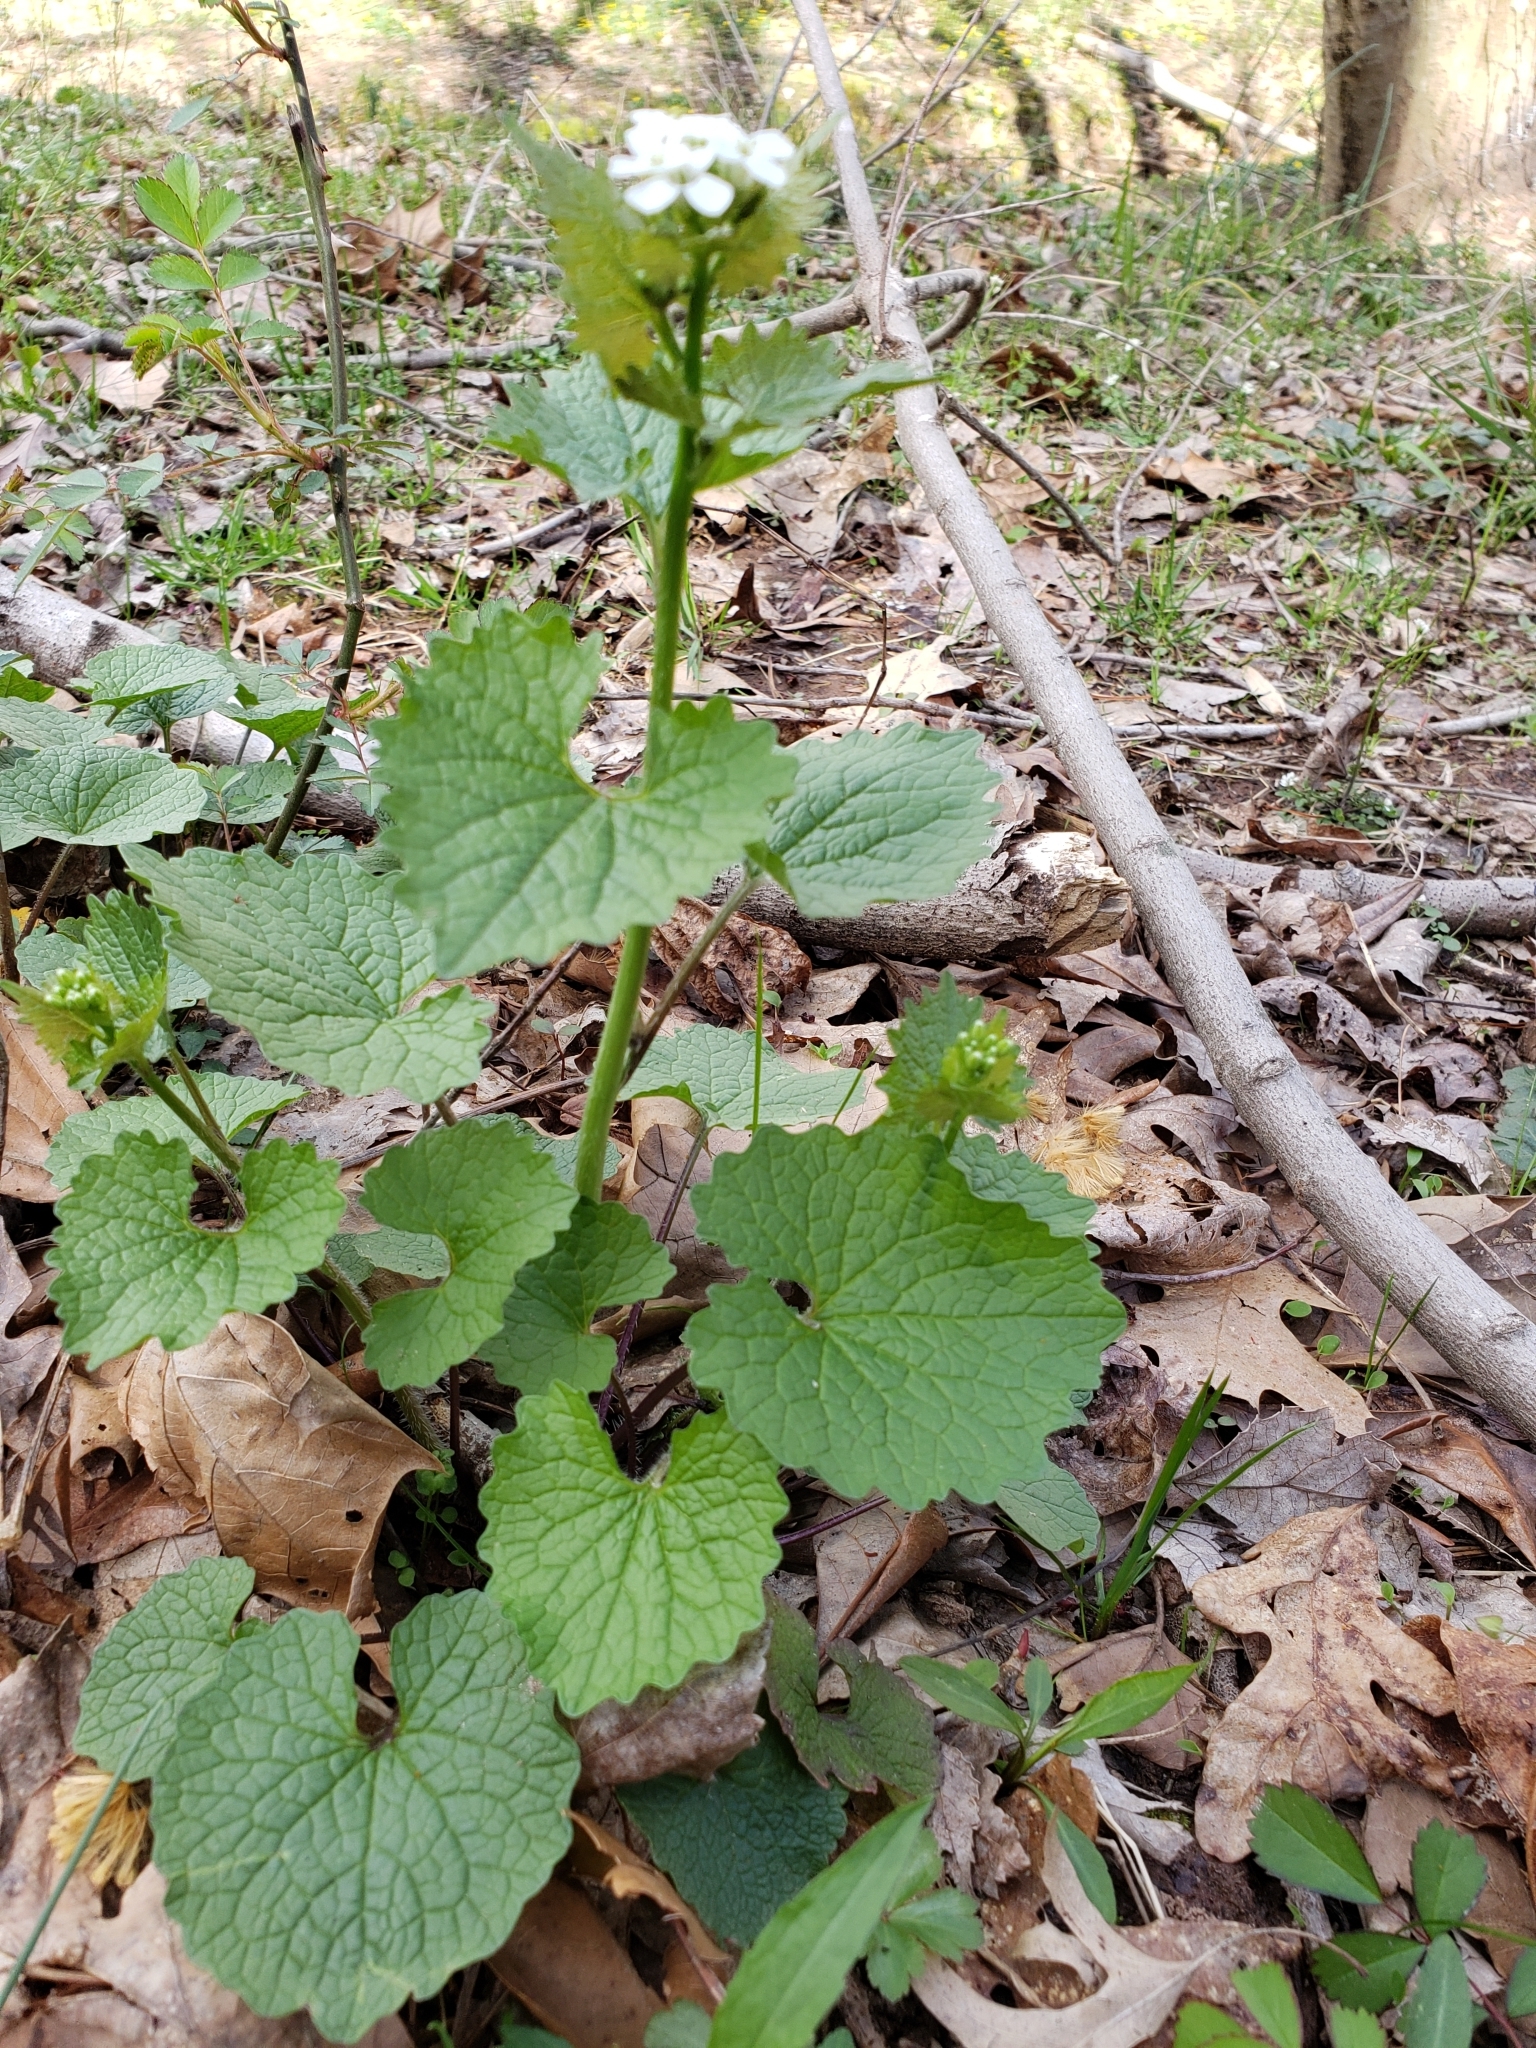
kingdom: Plantae
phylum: Tracheophyta
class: Magnoliopsida
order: Brassicales
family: Brassicaceae
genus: Alliaria
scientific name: Alliaria petiolata
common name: Garlic mustard
